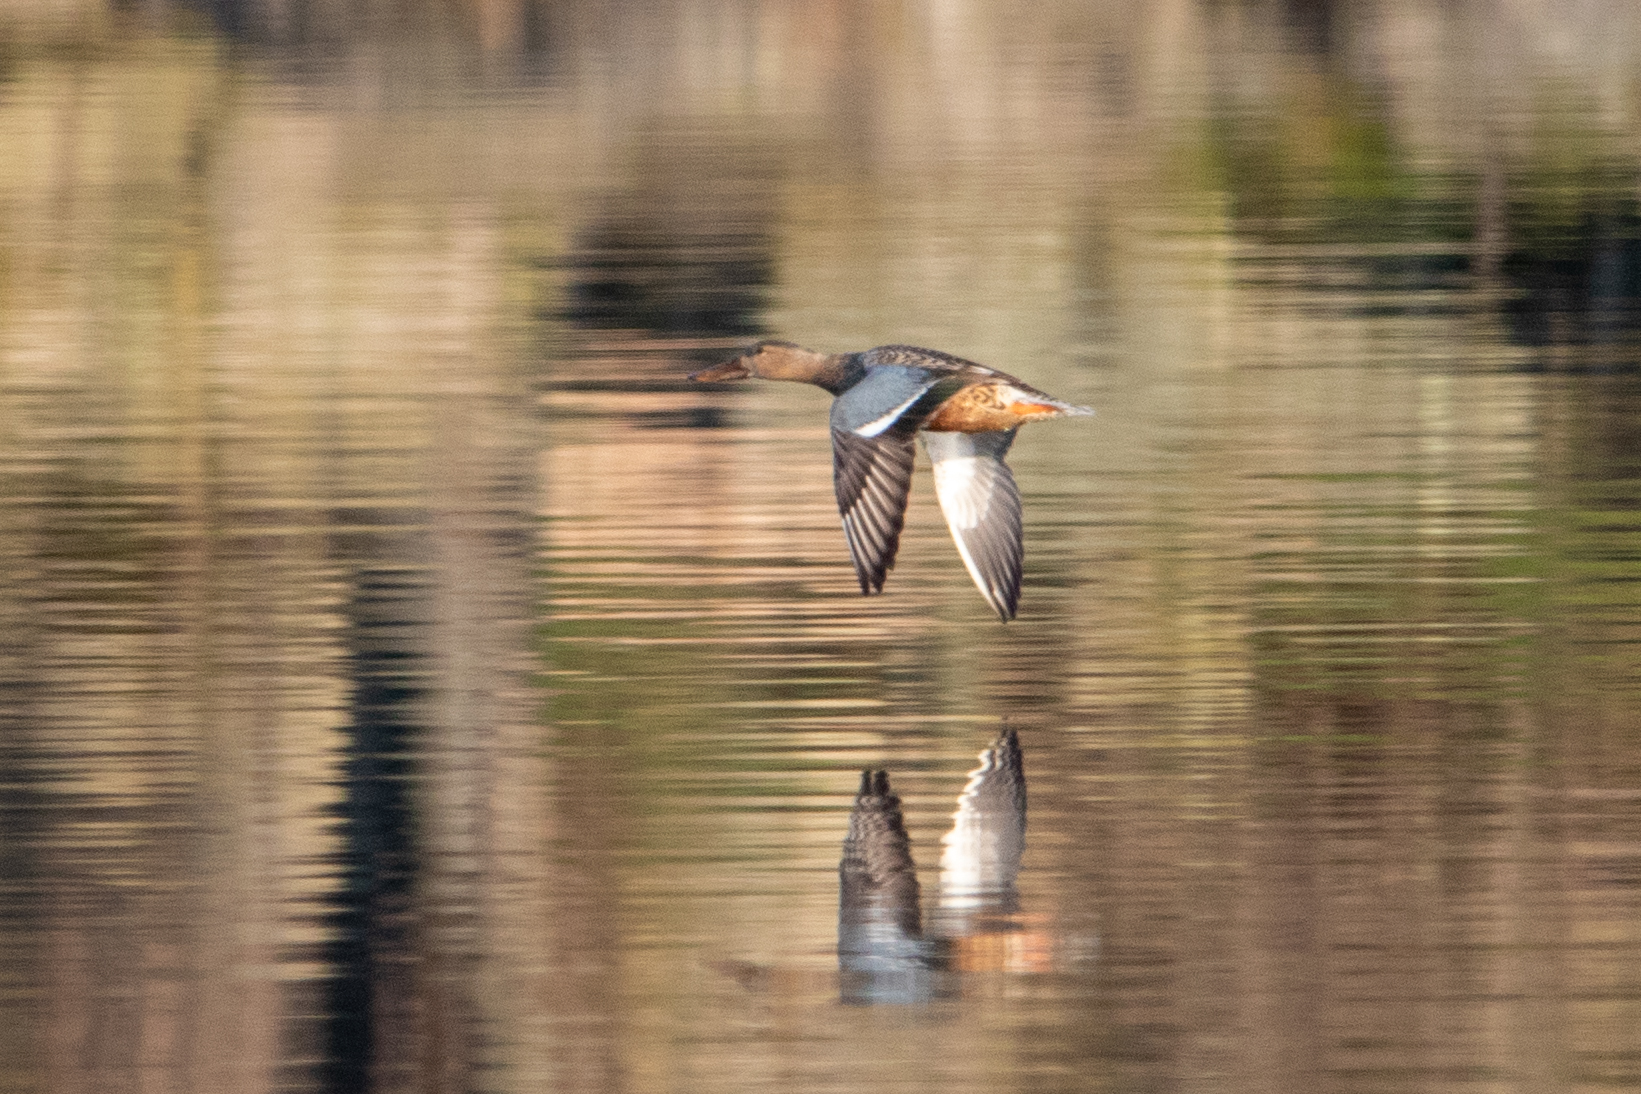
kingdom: Animalia
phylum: Chordata
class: Aves
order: Anseriformes
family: Anatidae
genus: Spatula
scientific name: Spatula clypeata
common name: Northern shoveler
